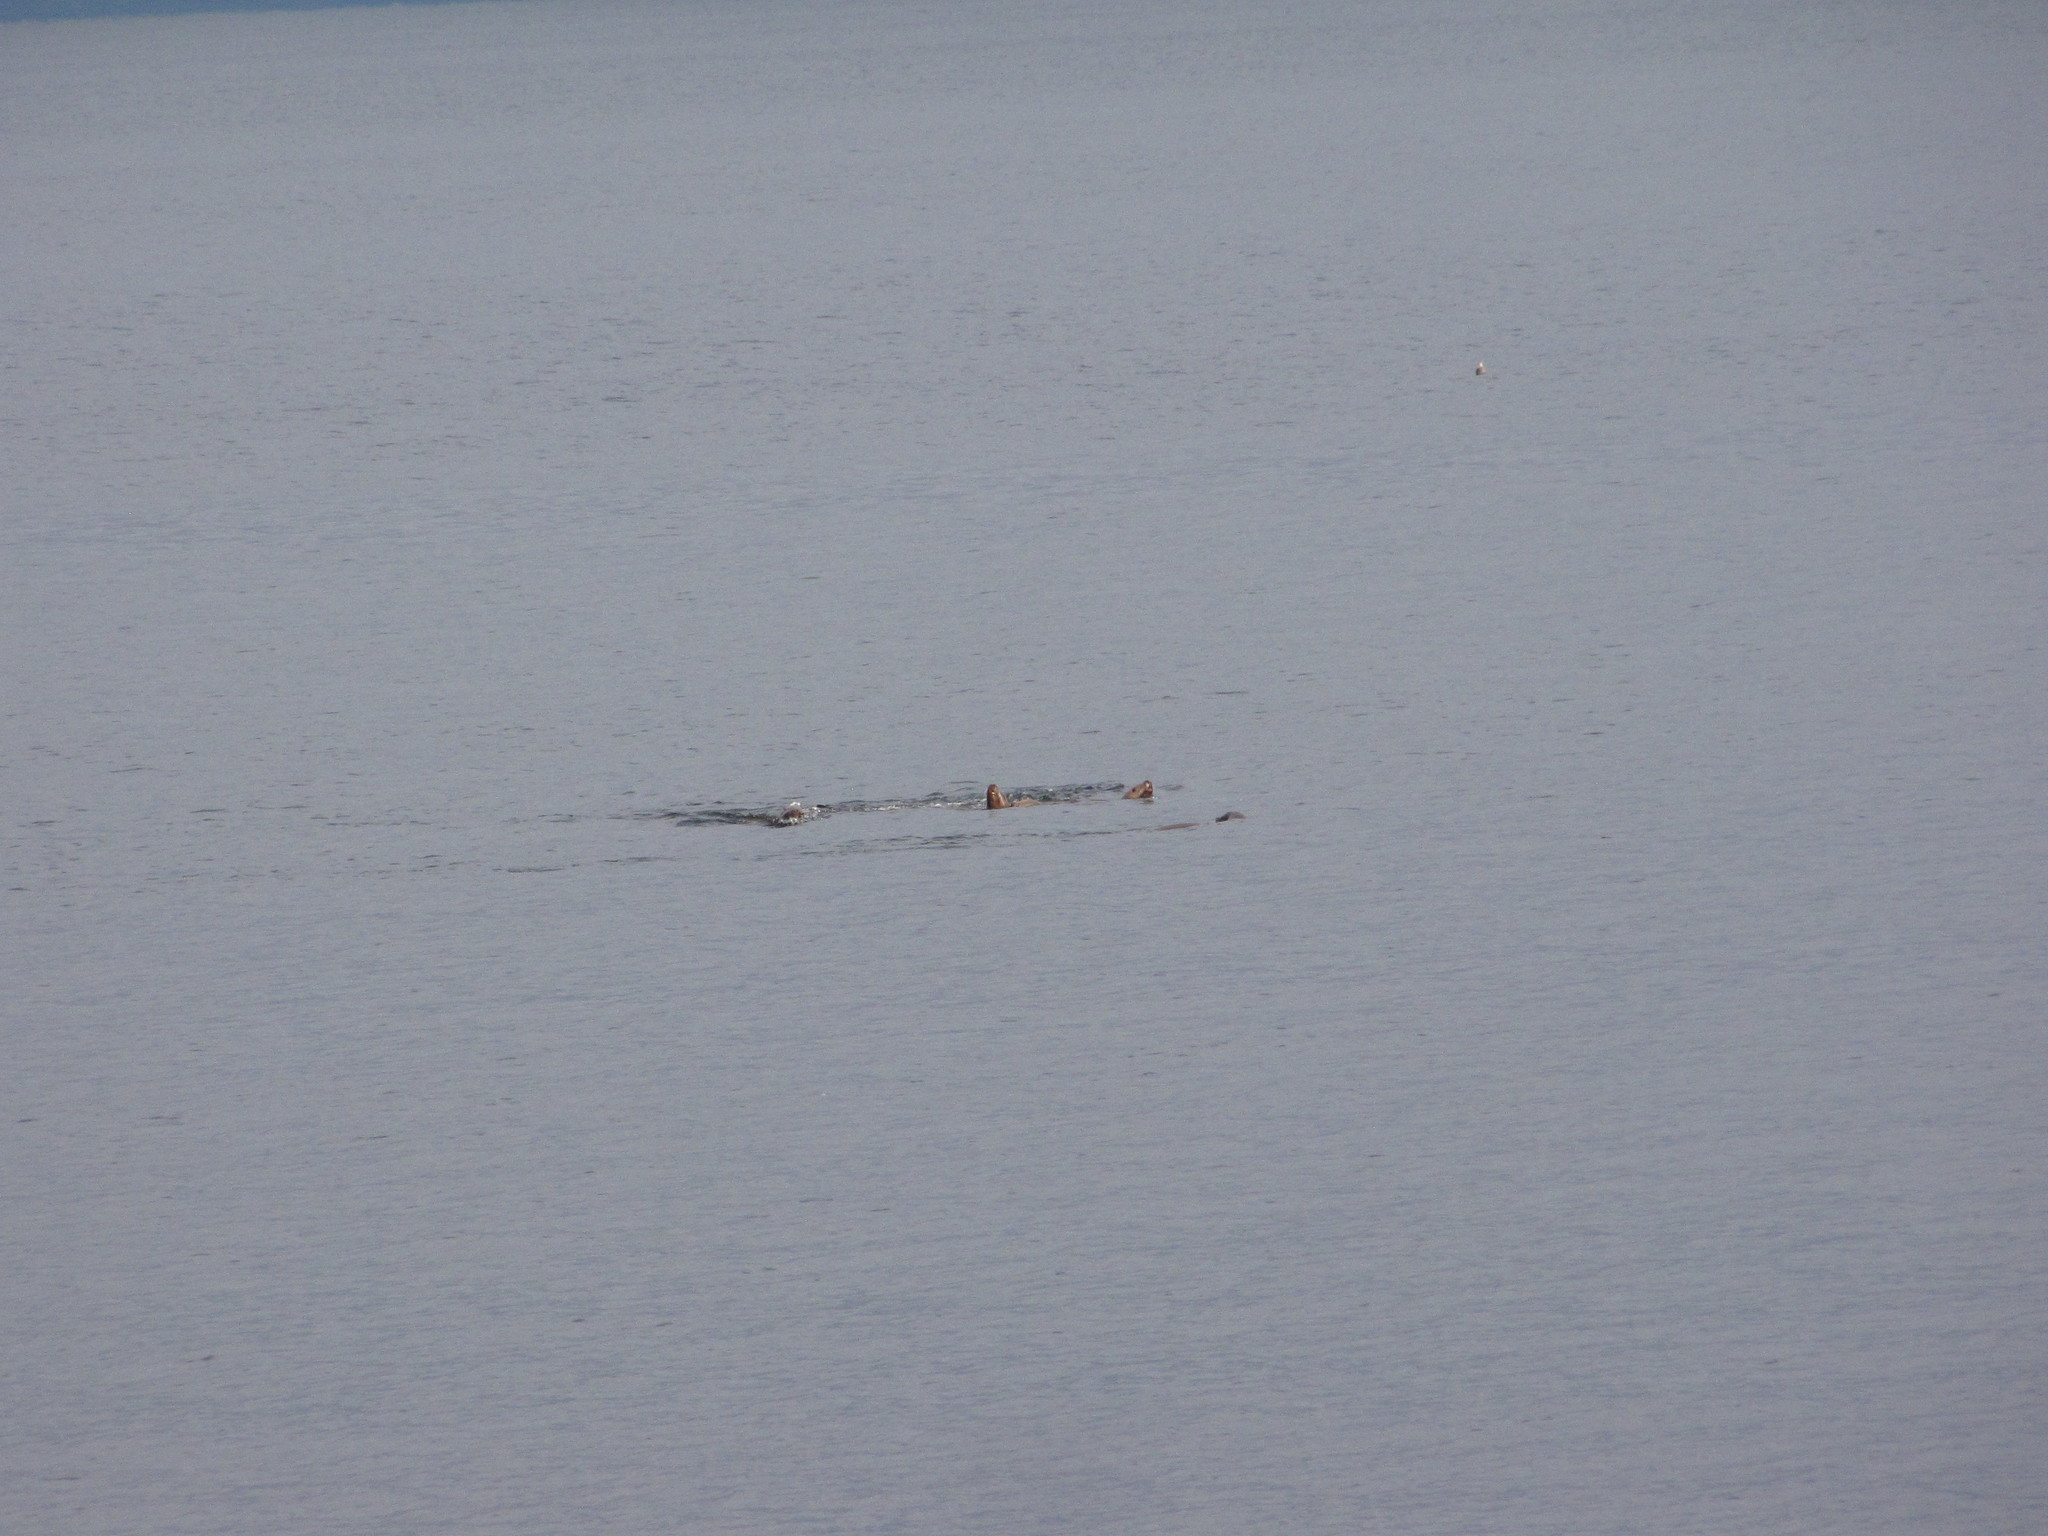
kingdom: Animalia
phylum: Chordata
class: Mammalia
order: Carnivora
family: Otariidae
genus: Eumetopias
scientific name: Eumetopias jubatus
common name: Steller sea lion
